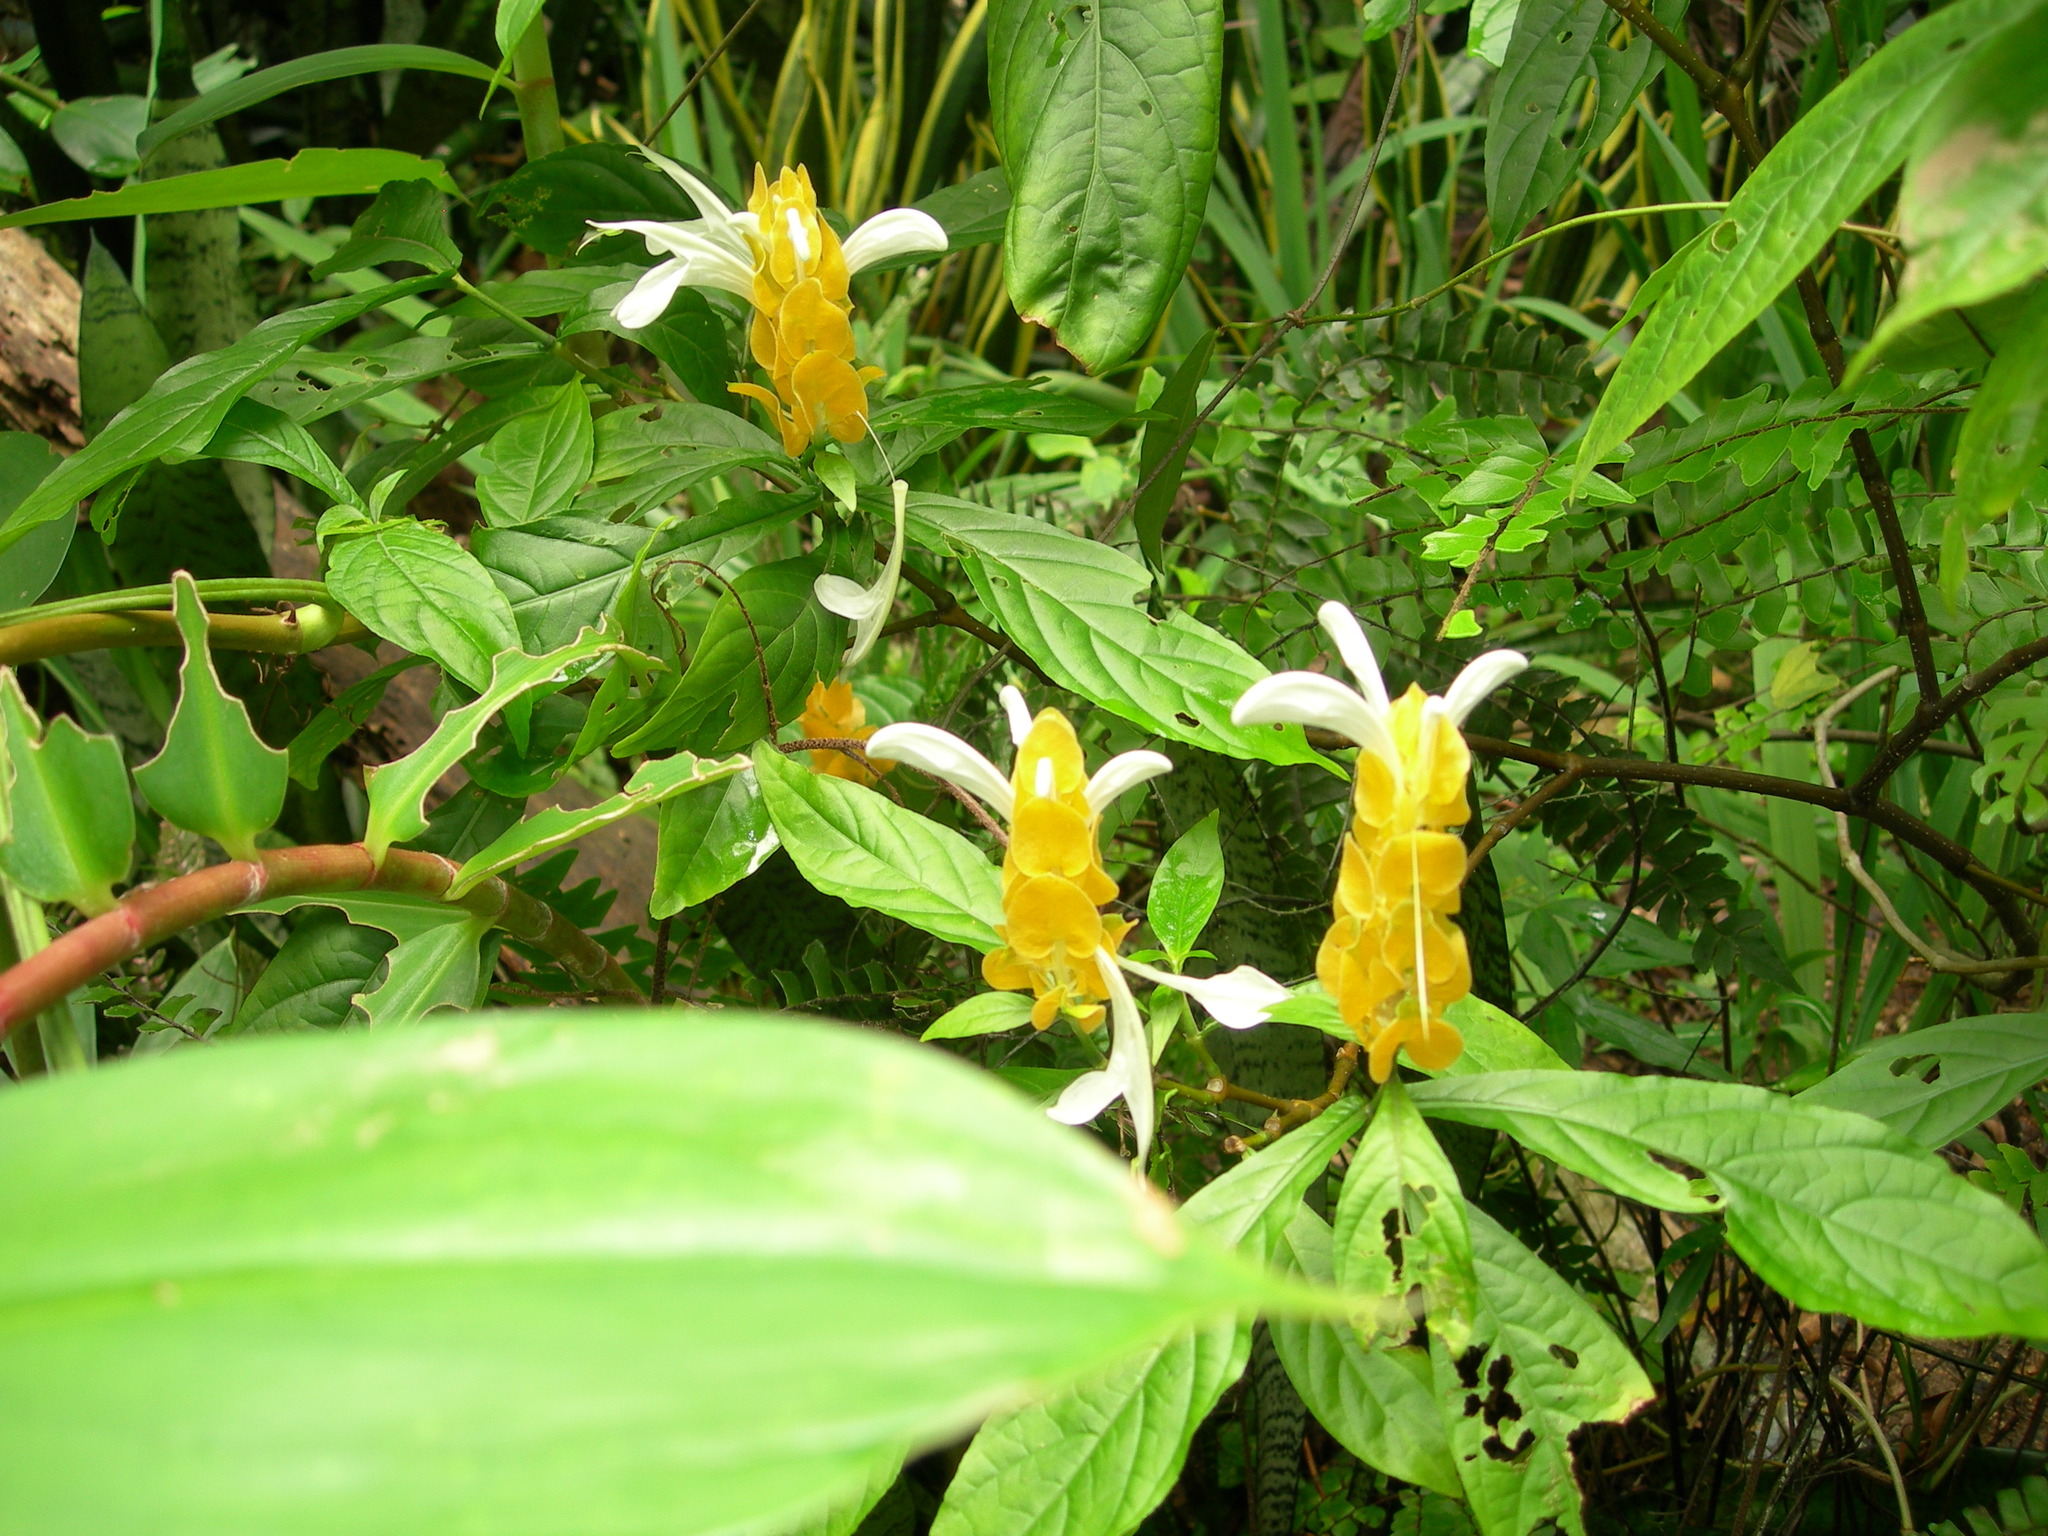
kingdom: Plantae
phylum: Tracheophyta
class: Magnoliopsida
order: Lamiales
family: Acanthaceae
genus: Pachystachys
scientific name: Pachystachys lutea
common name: Golden shrimp-plant
